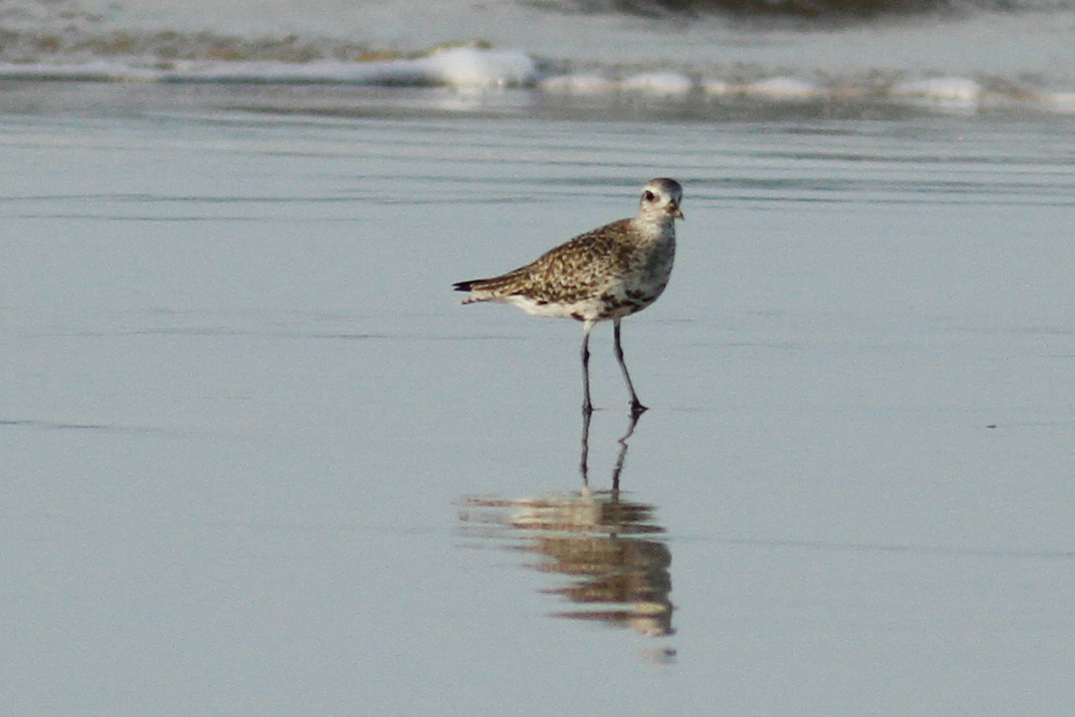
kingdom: Animalia
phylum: Chordata
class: Aves
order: Charadriiformes
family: Charadriidae
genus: Pluvialis
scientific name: Pluvialis squatarola
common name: Grey plover
